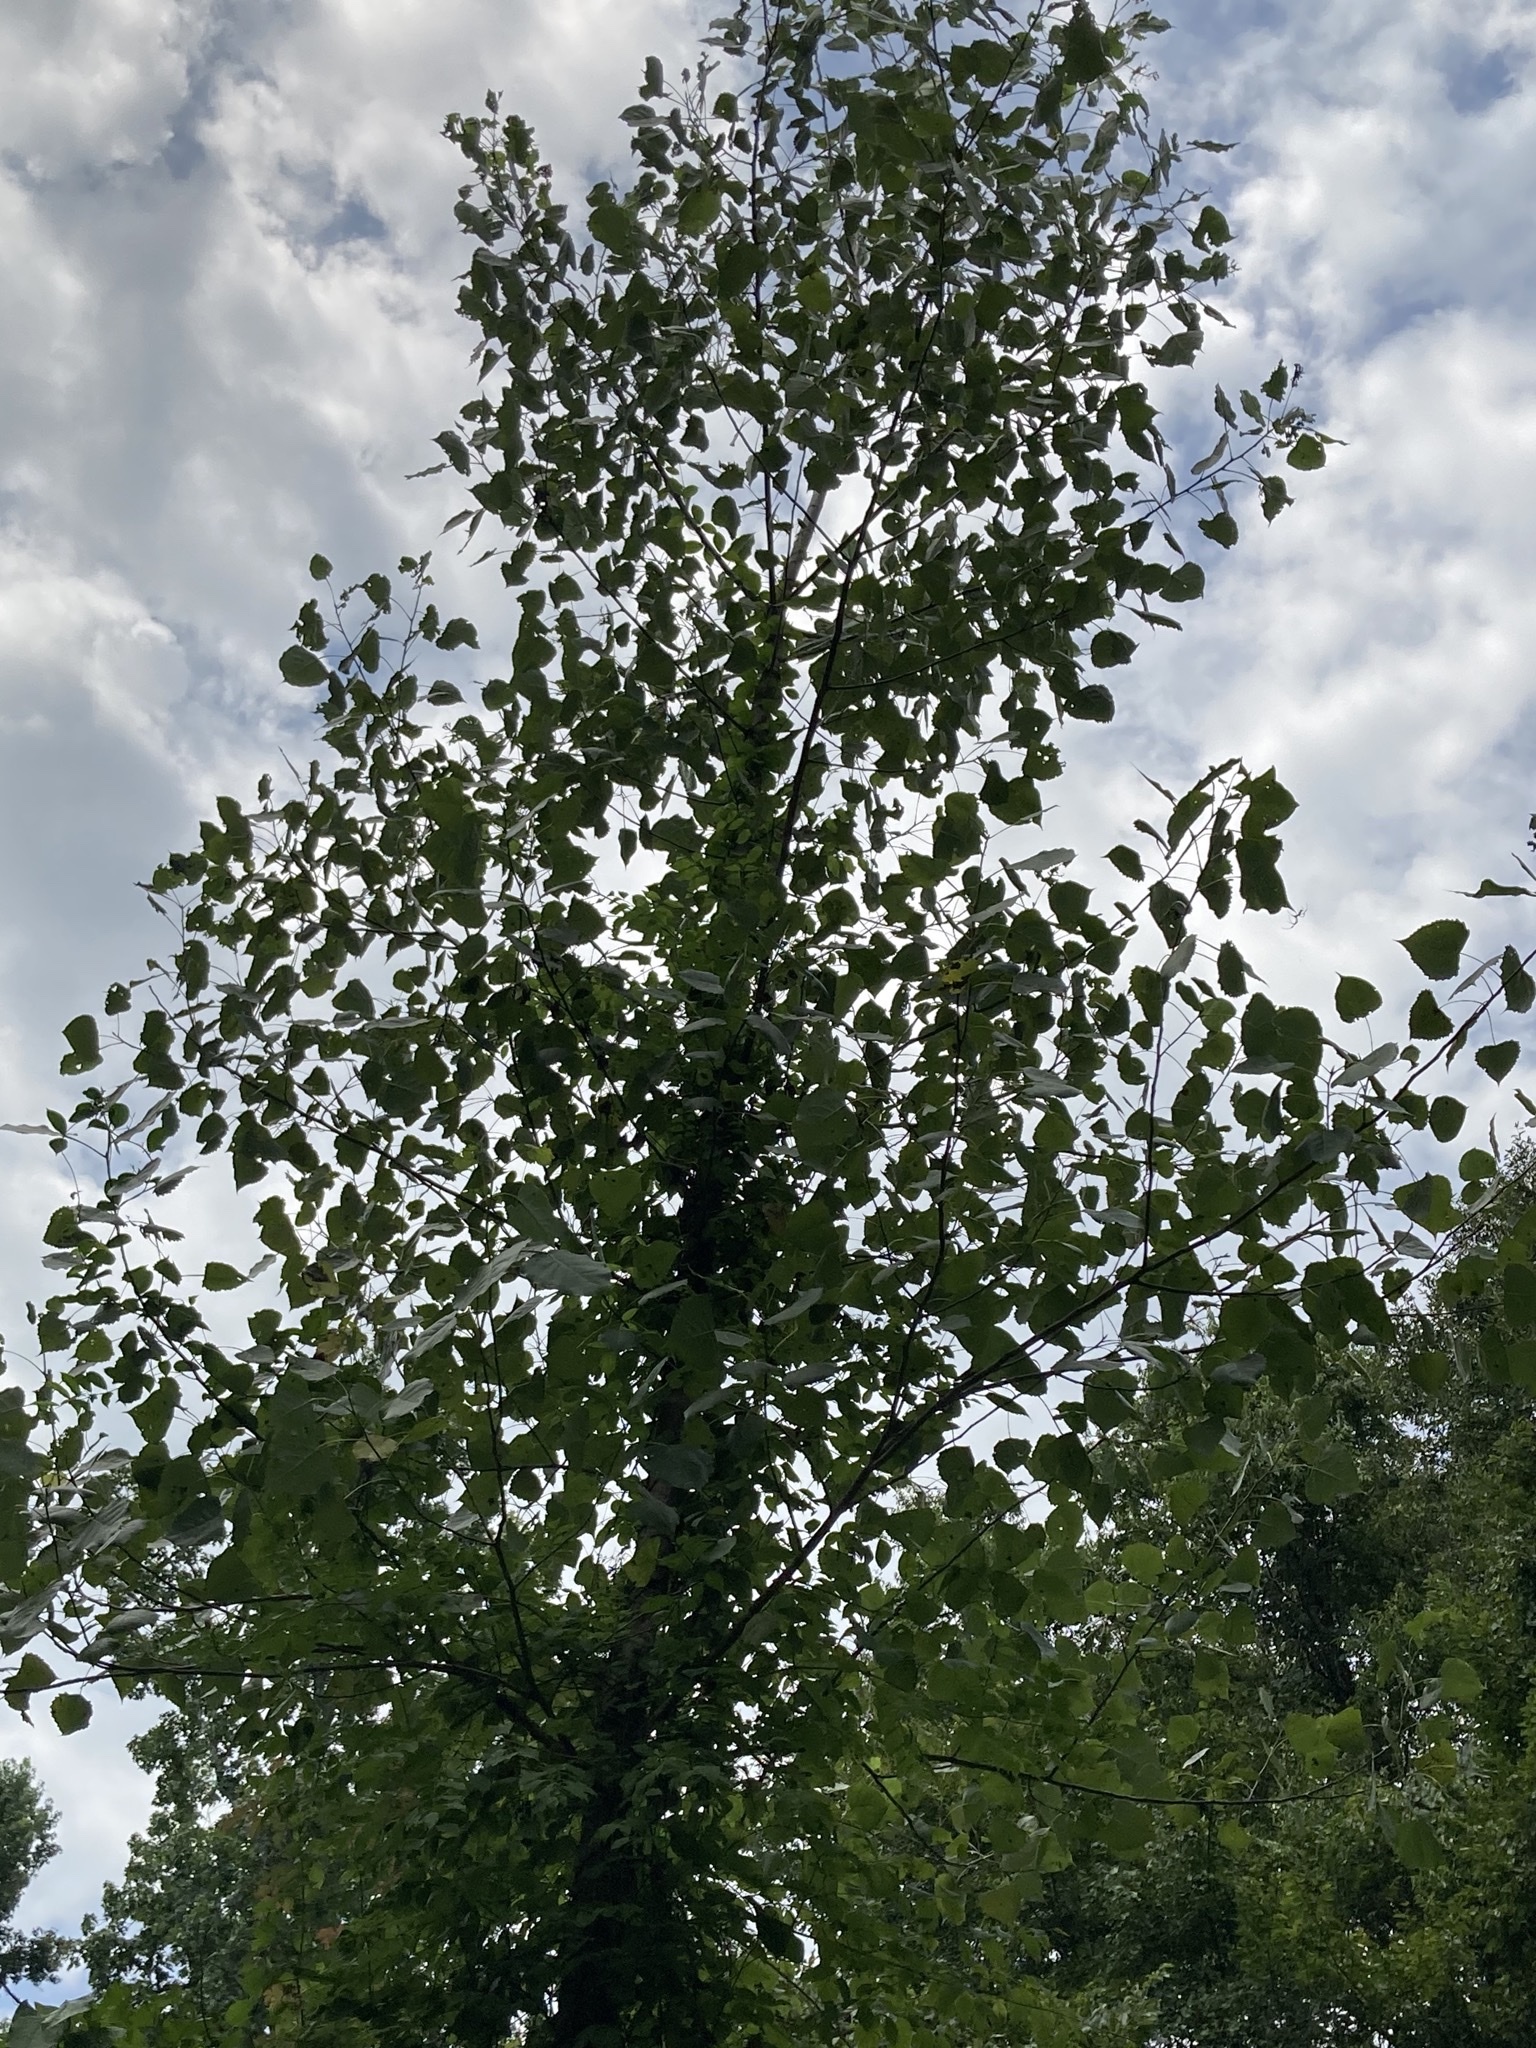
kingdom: Plantae
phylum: Tracheophyta
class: Magnoliopsida
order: Malpighiales
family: Salicaceae
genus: Populus
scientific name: Populus deltoides
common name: Eastern cottonwood
